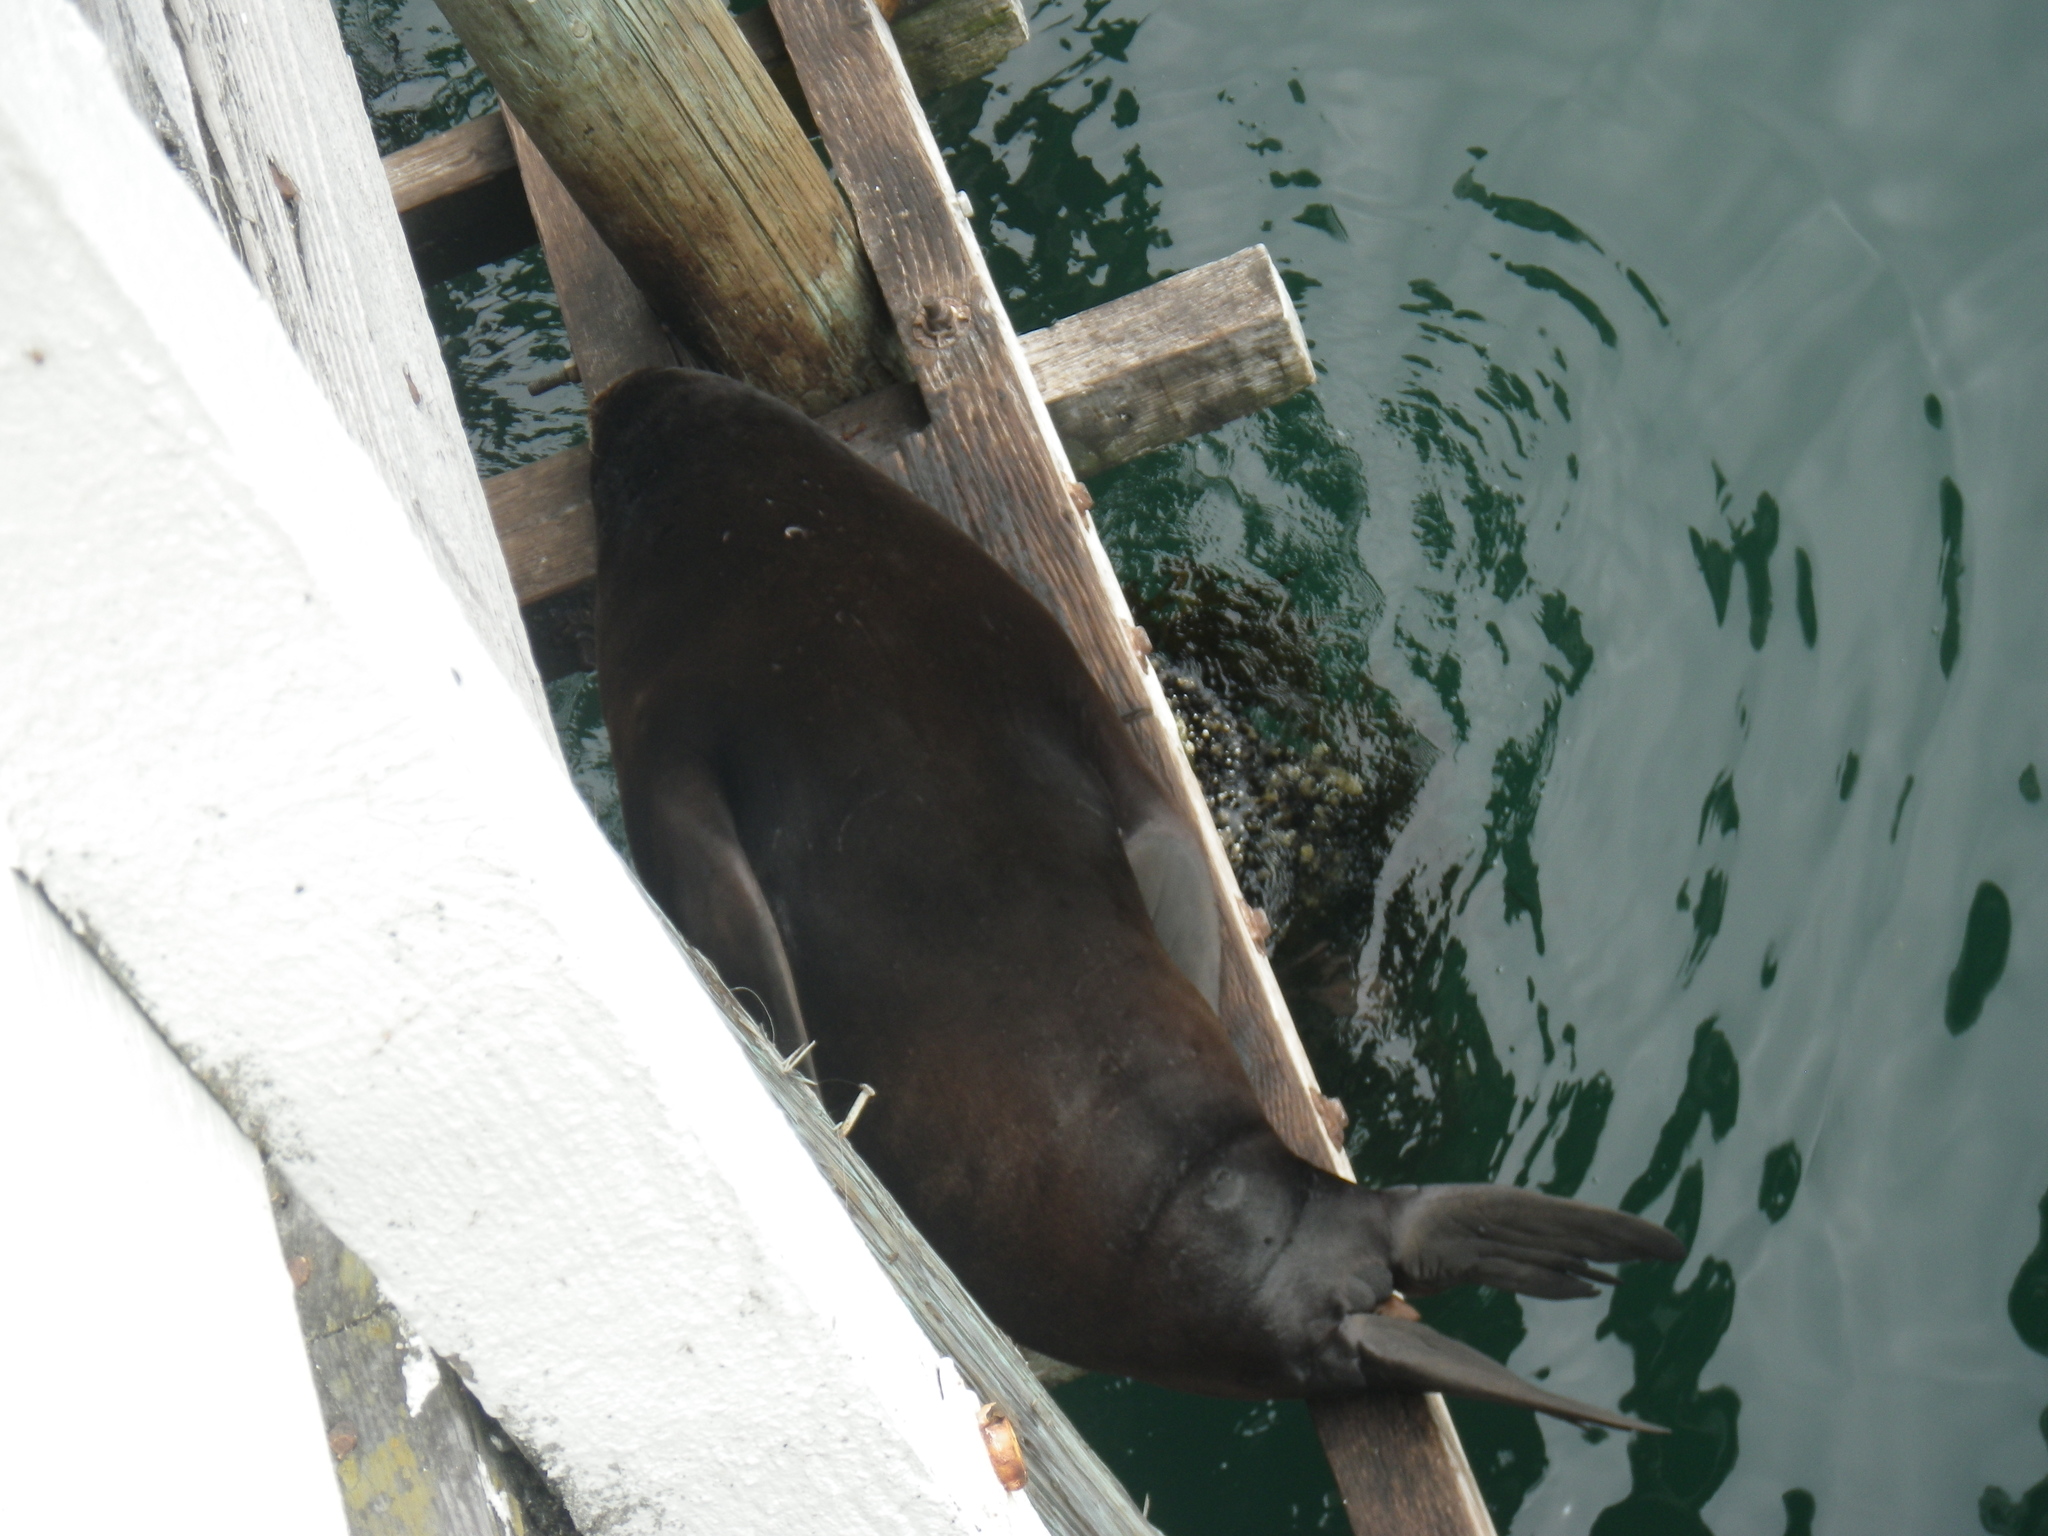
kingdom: Animalia
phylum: Chordata
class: Mammalia
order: Carnivora
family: Otariidae
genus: Zalophus
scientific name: Zalophus californianus
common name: California sea lion
